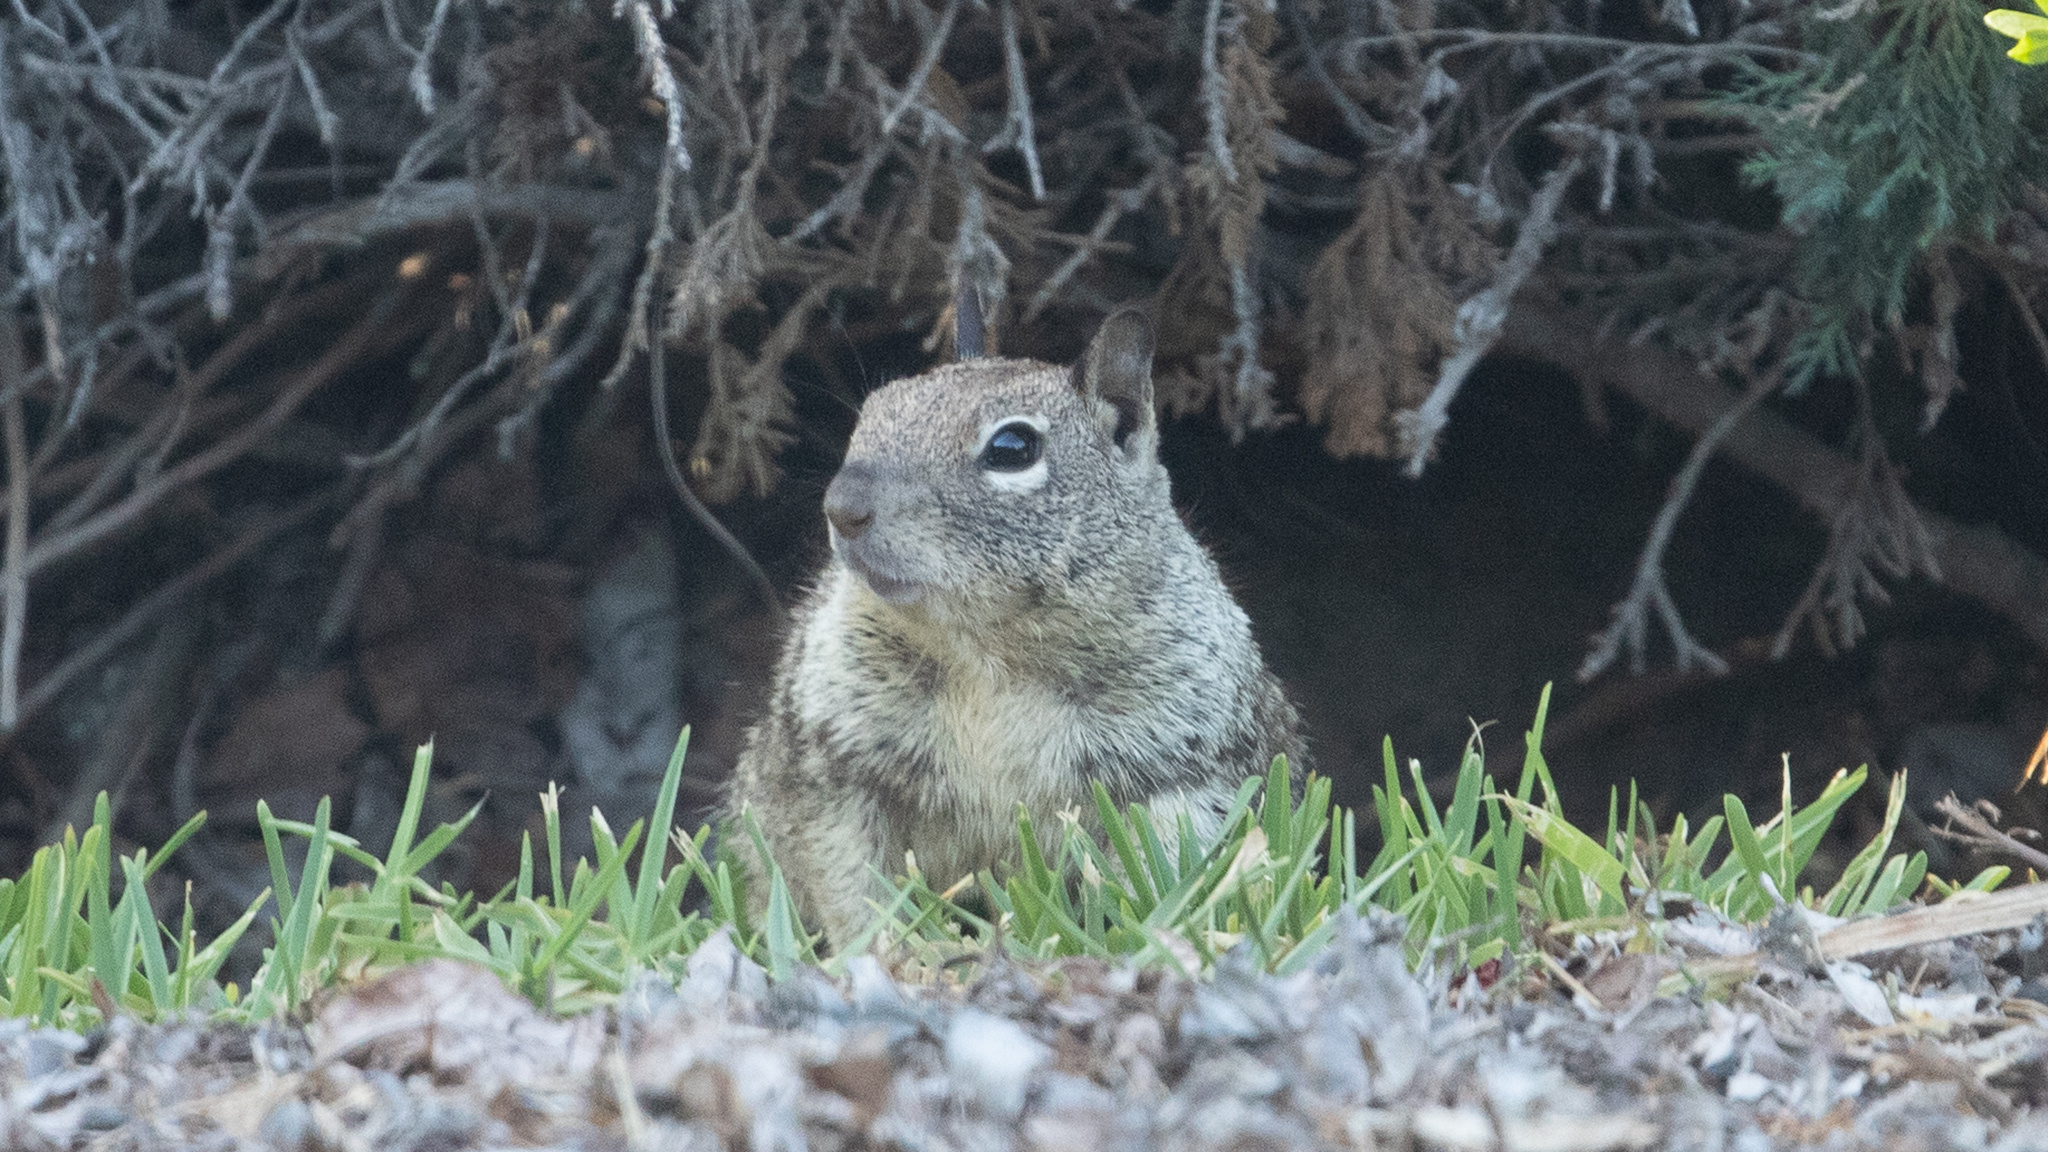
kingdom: Animalia
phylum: Chordata
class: Mammalia
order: Rodentia
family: Sciuridae
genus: Otospermophilus
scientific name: Otospermophilus beecheyi
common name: California ground squirrel
